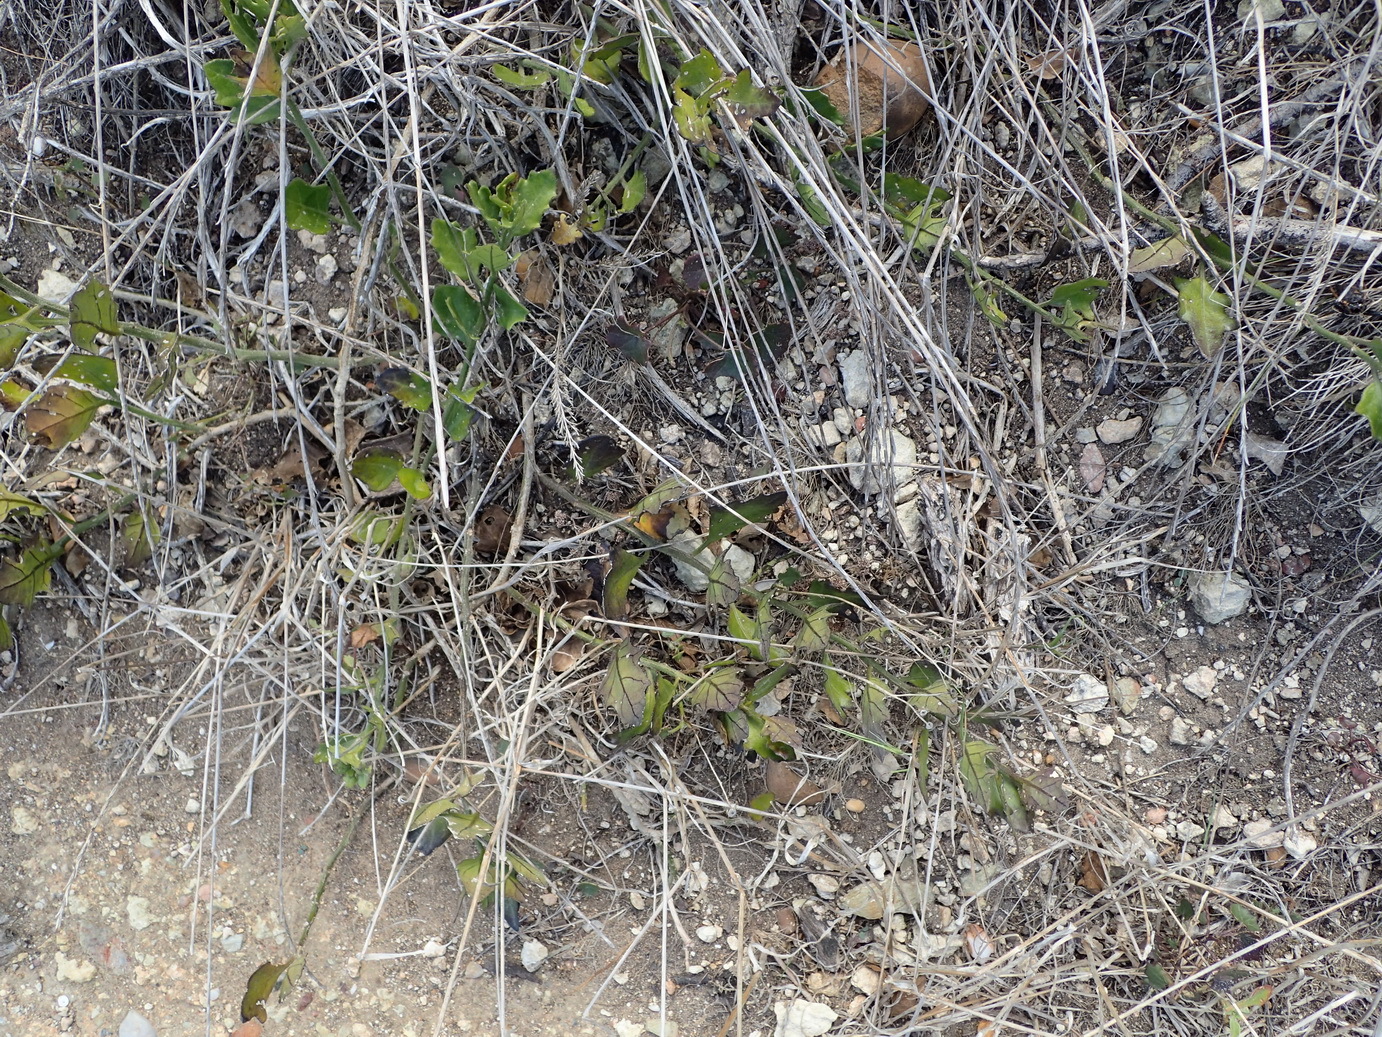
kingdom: Plantae
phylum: Tracheophyta
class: Magnoliopsida
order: Solanales
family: Solanaceae
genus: Solanum
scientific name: Solanum africanum
